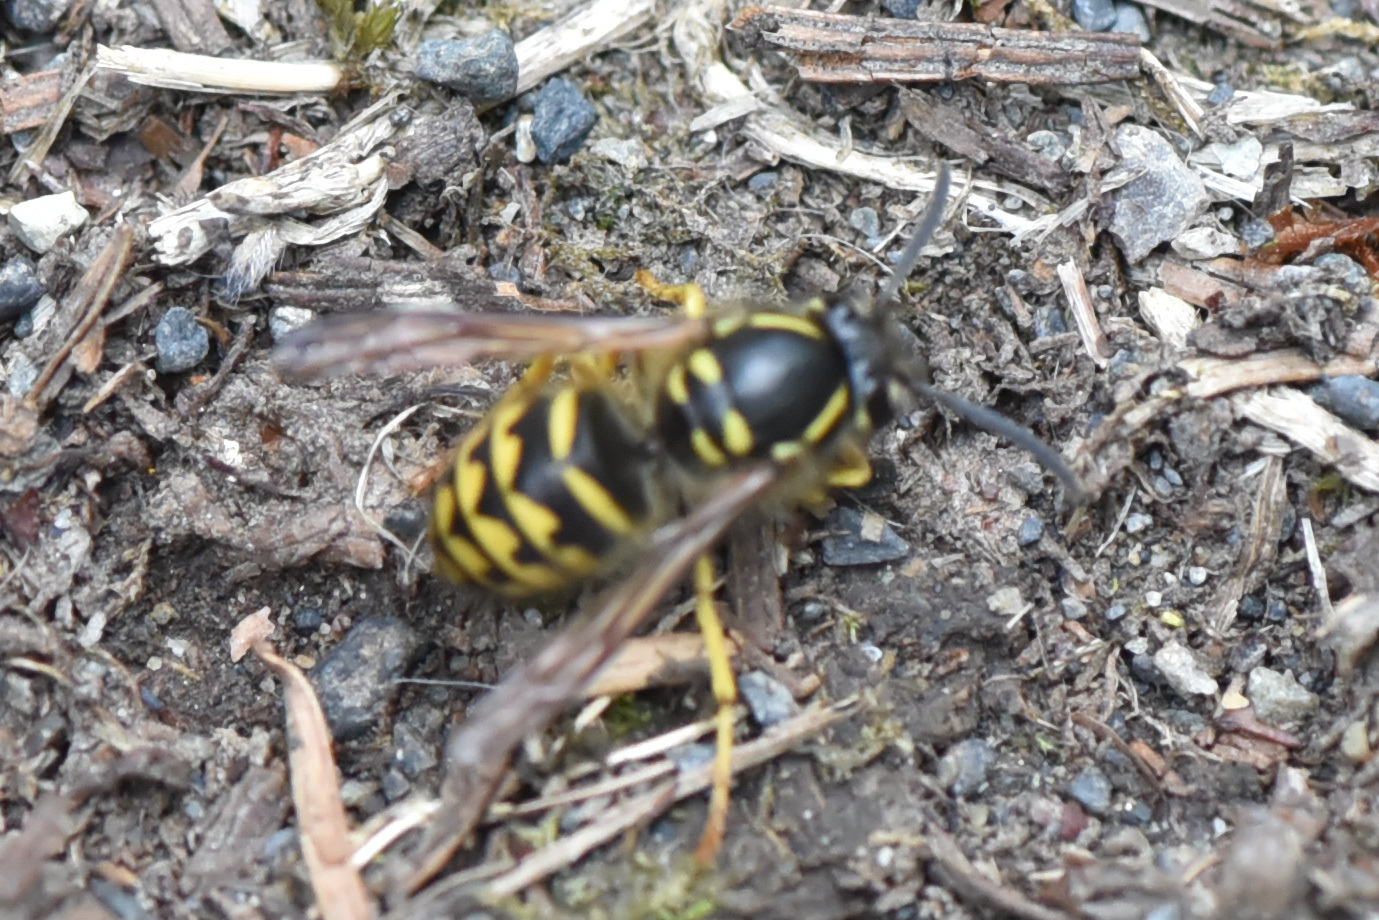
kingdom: Animalia
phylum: Arthropoda
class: Insecta
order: Hymenoptera
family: Vespidae
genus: Dolichovespula
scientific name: Dolichovespula arenaria
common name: Aerial yellowjacket
